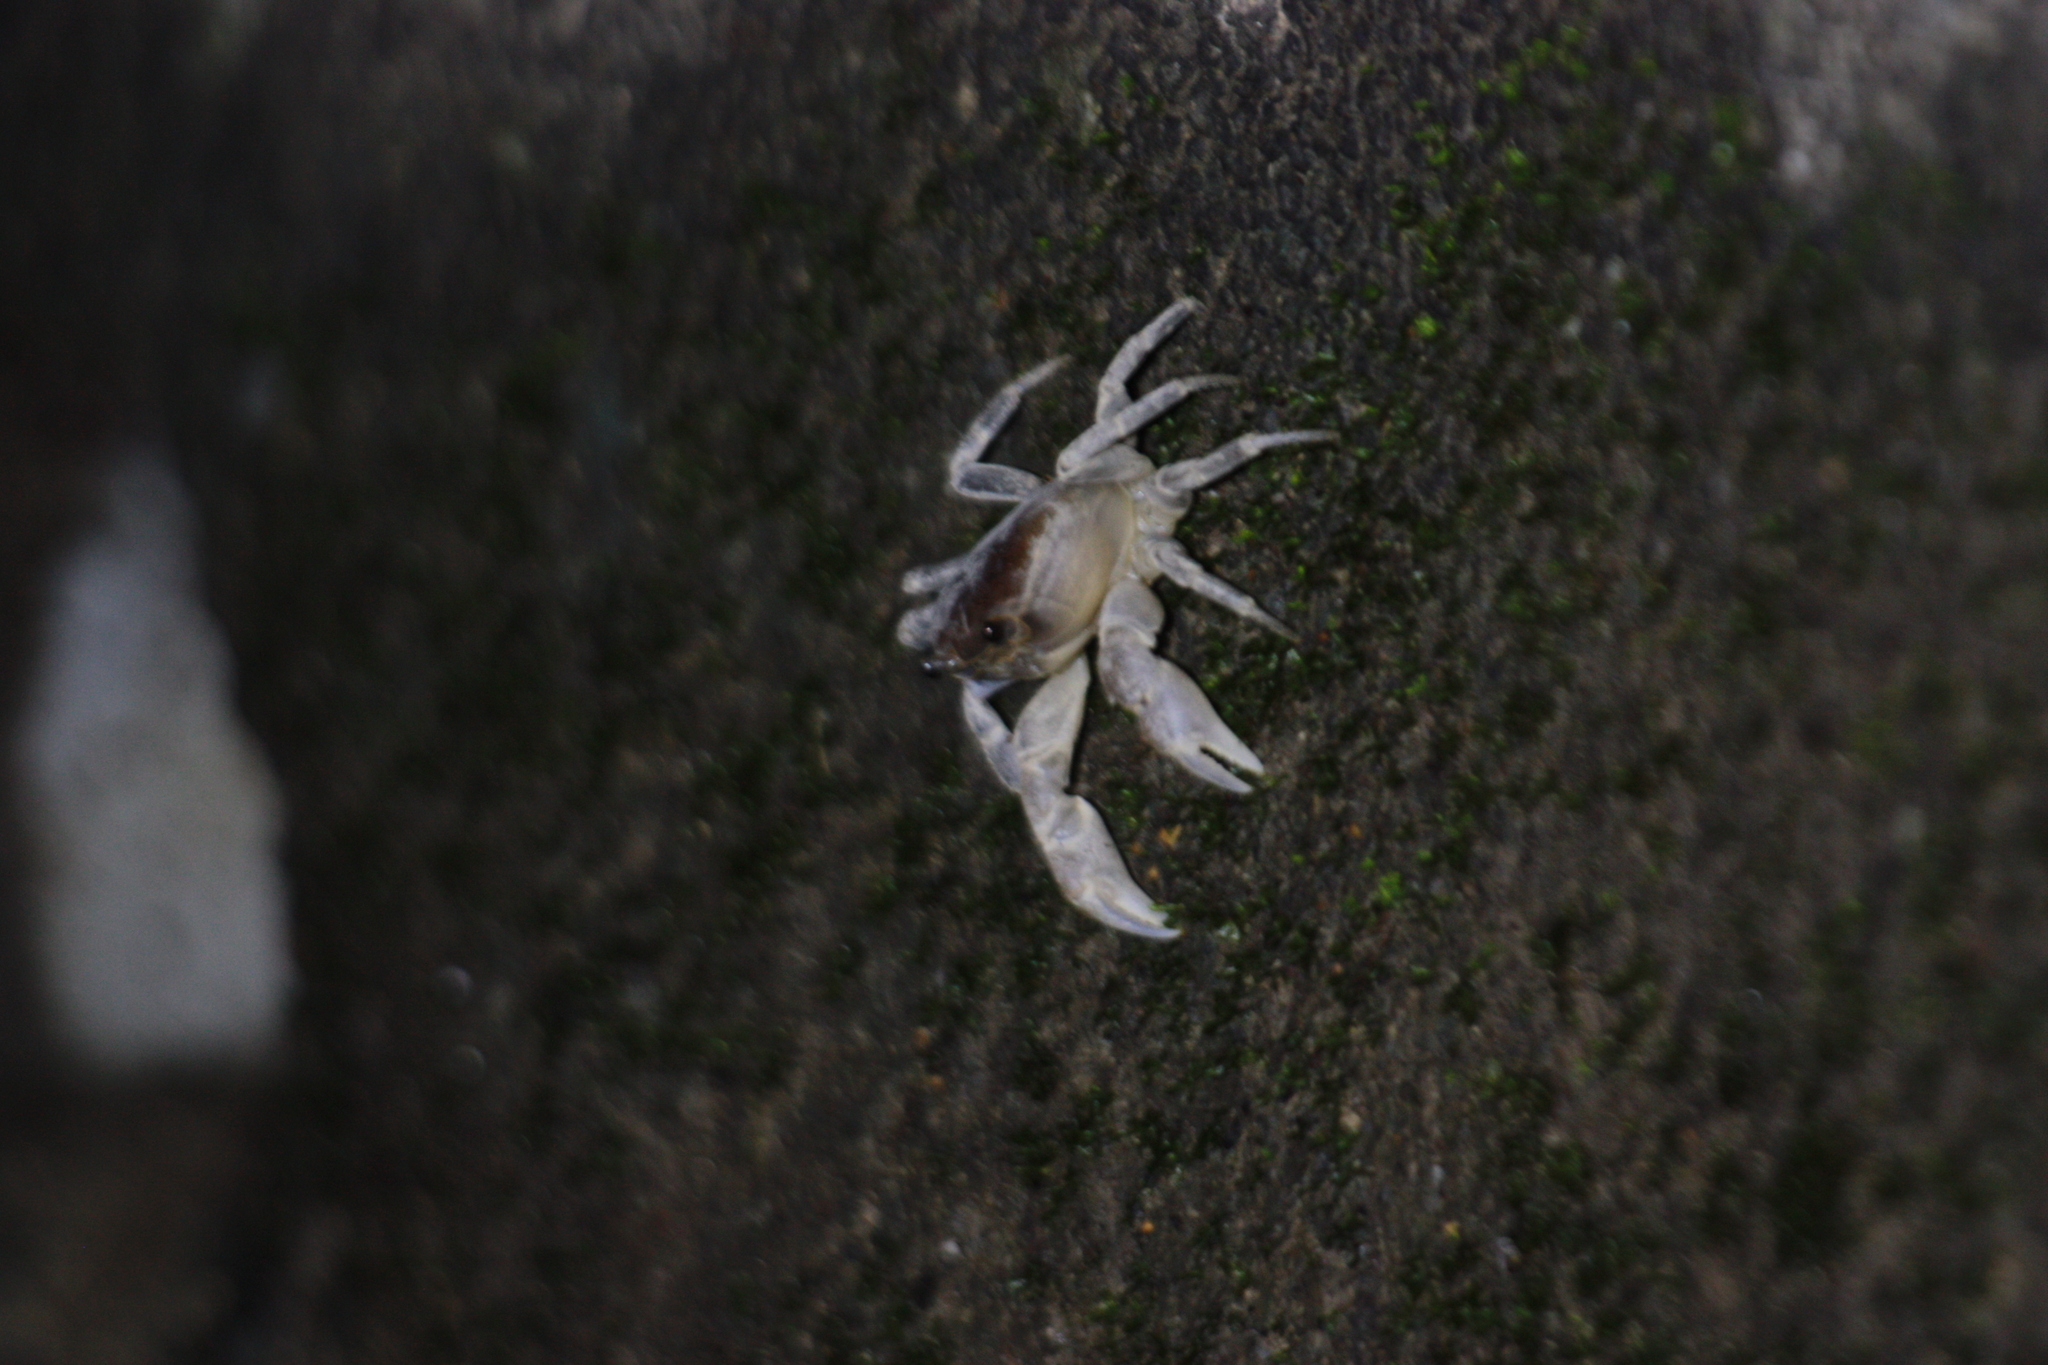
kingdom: Animalia
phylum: Arthropoda
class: Malacostraca
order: Decapoda
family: Potamidae
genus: Geothelphusa
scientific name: Geothelphusa makatao
